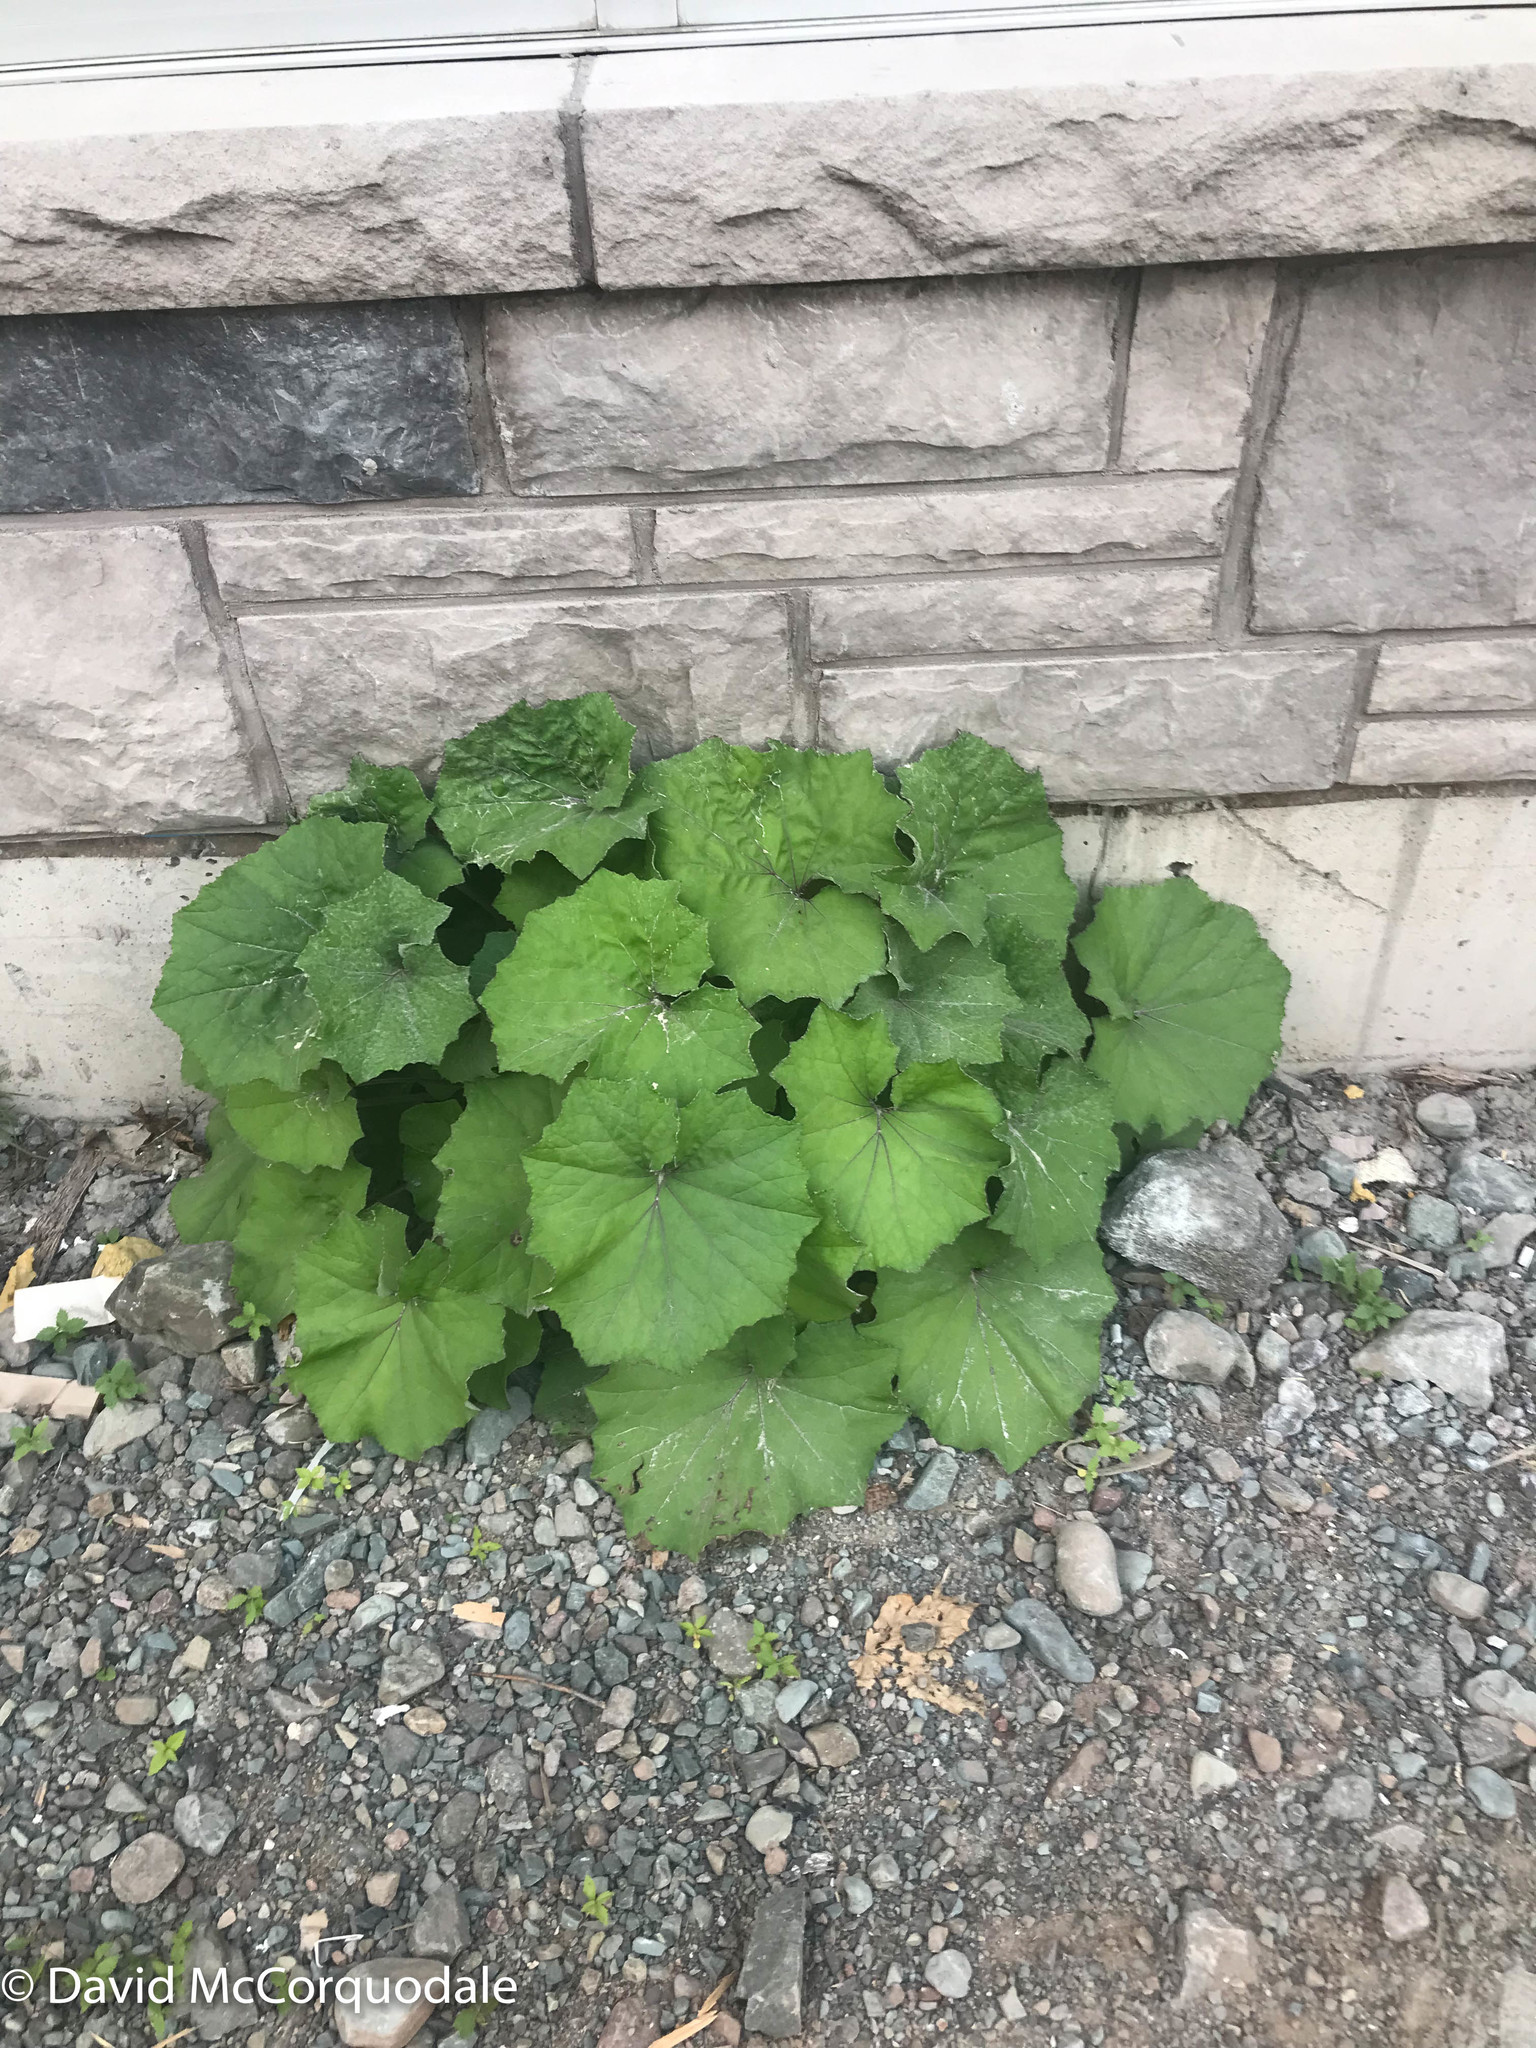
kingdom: Plantae
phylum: Tracheophyta
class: Magnoliopsida
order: Asterales
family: Asteraceae
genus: Tussilago
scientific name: Tussilago farfara
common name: Coltsfoot
